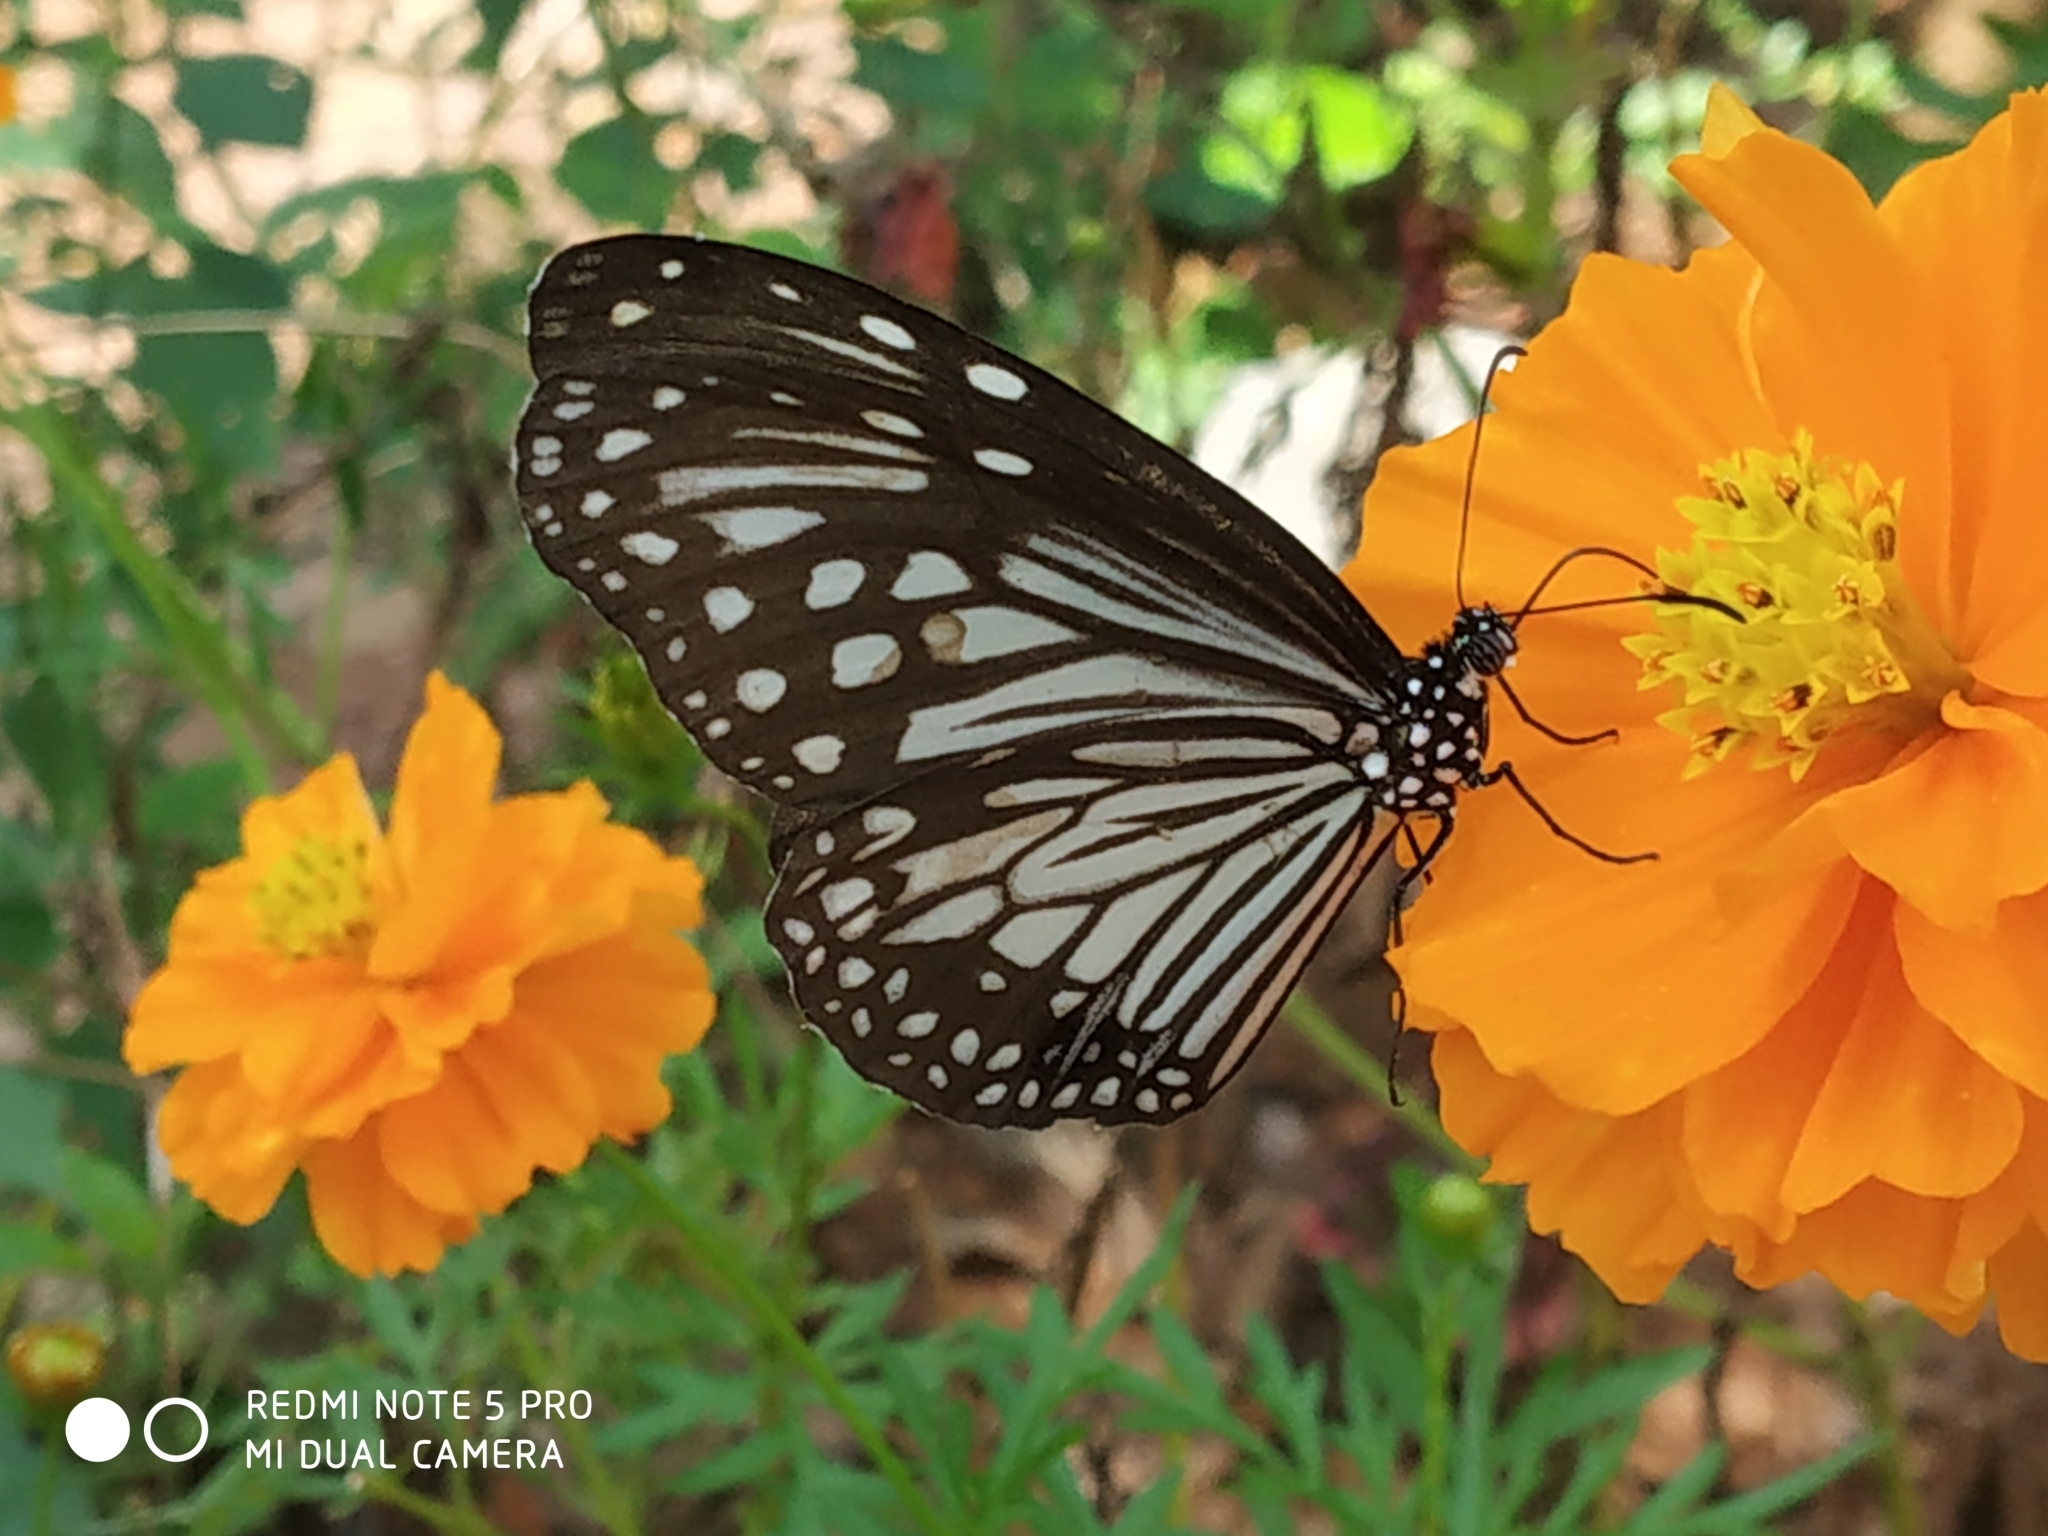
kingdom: Animalia
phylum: Arthropoda
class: Insecta
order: Lepidoptera
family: Nymphalidae
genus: Parantica
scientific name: Parantica aglea
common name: Glassy tiger
